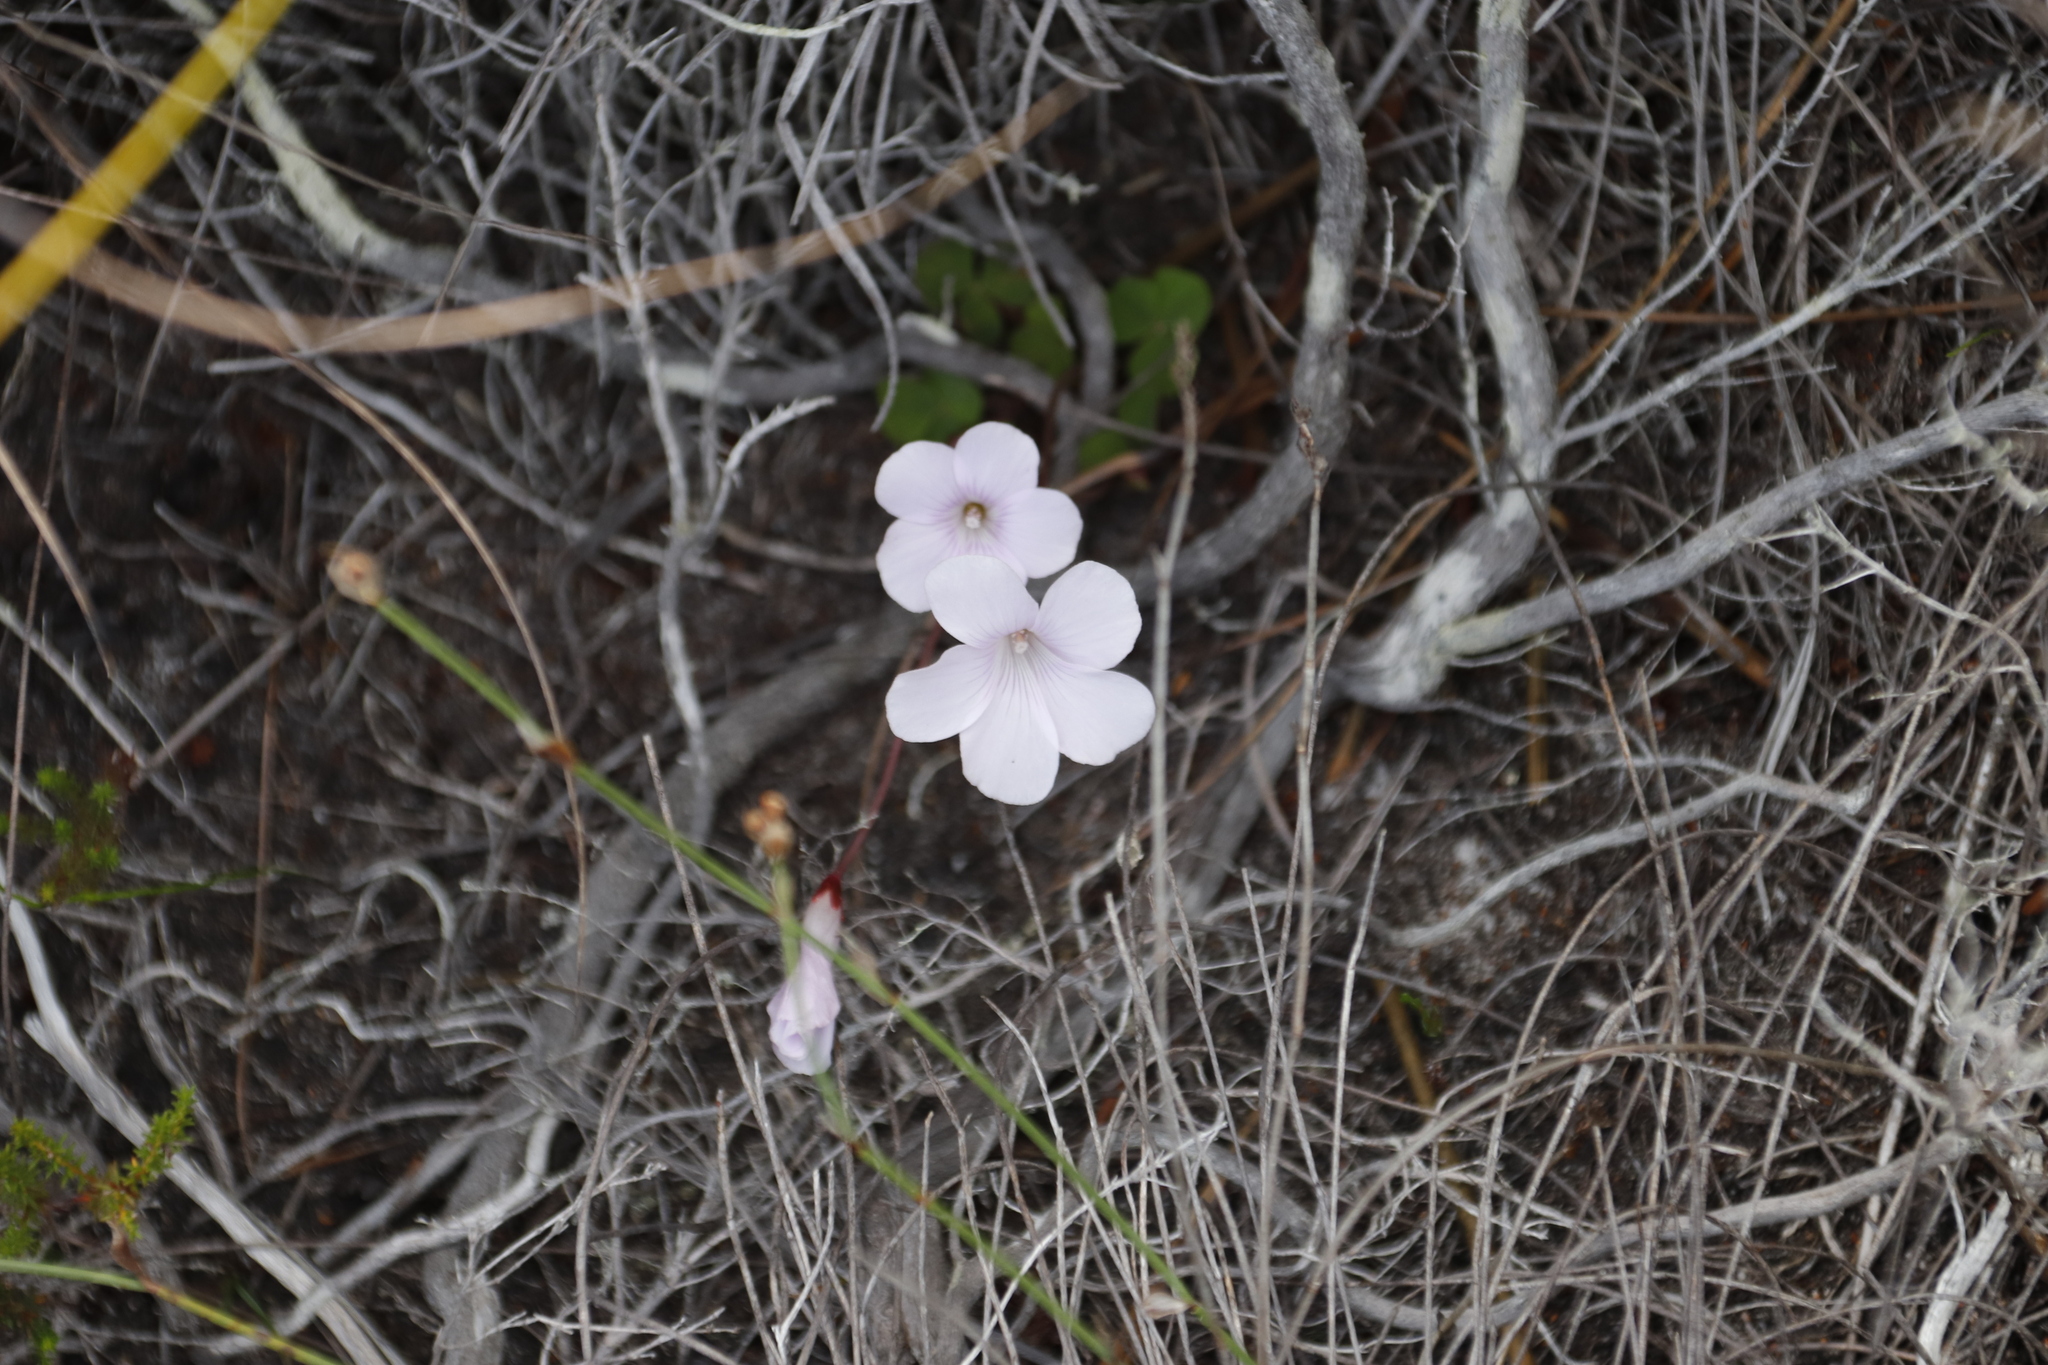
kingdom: Plantae
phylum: Tracheophyta
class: Magnoliopsida
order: Oxalidales
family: Oxalidaceae
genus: Oxalis
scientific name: Oxalis commutata
